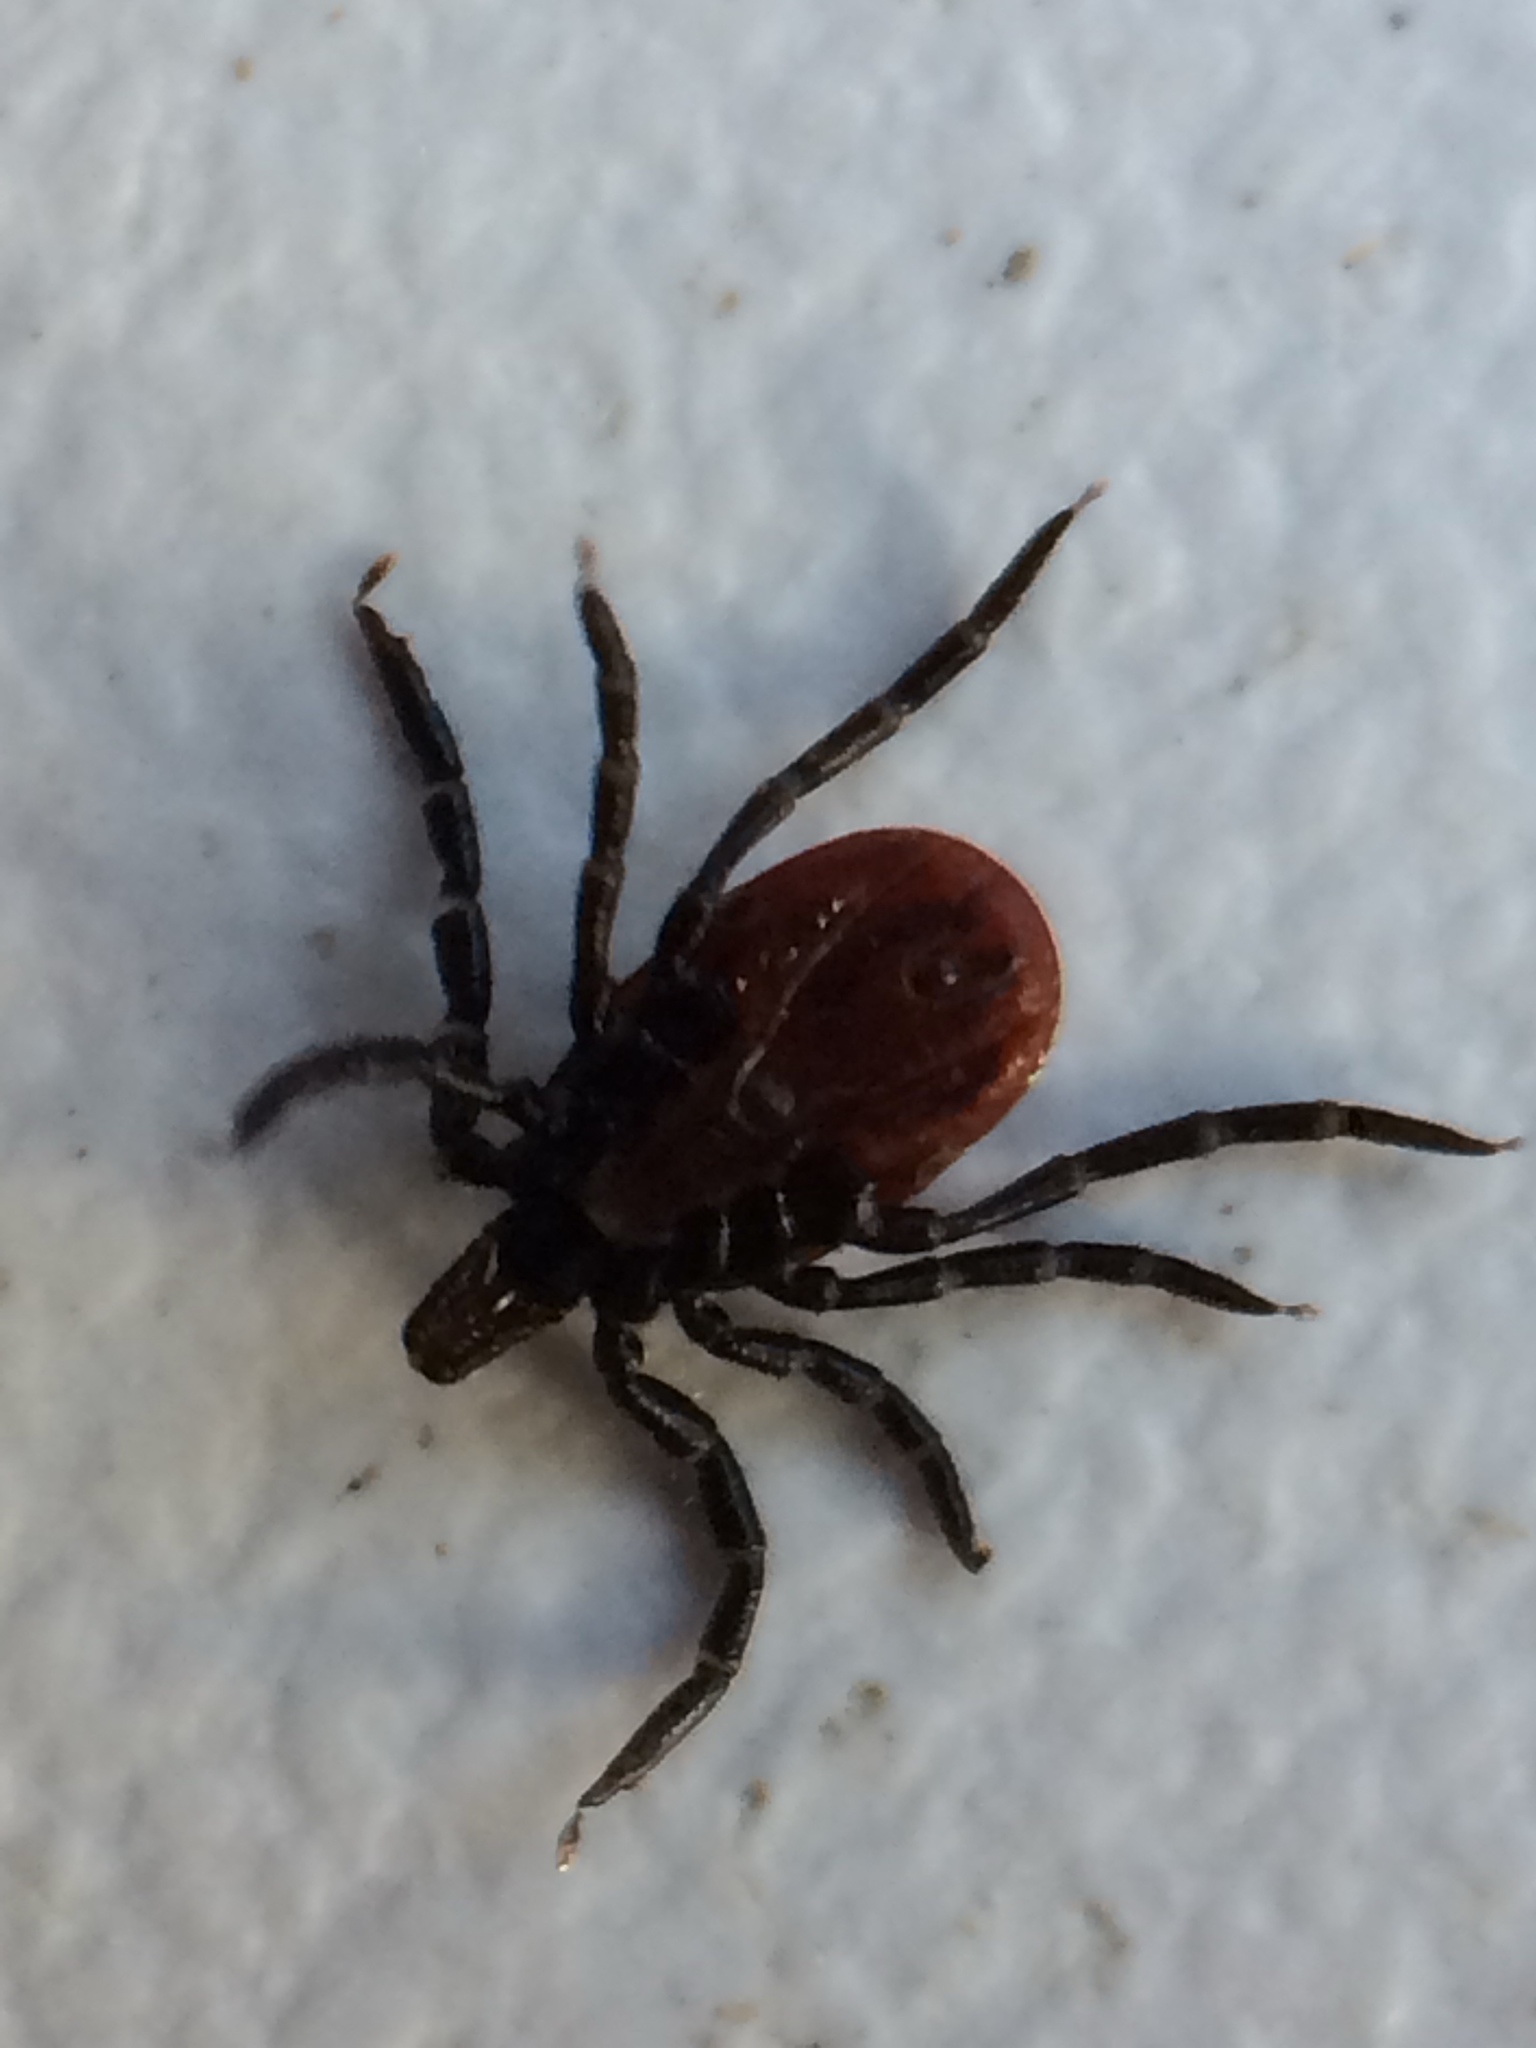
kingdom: Animalia
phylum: Arthropoda
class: Arachnida
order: Ixodida
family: Ixodidae
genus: Ixodes
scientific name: Ixodes pacificus
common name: California black-legged tick
